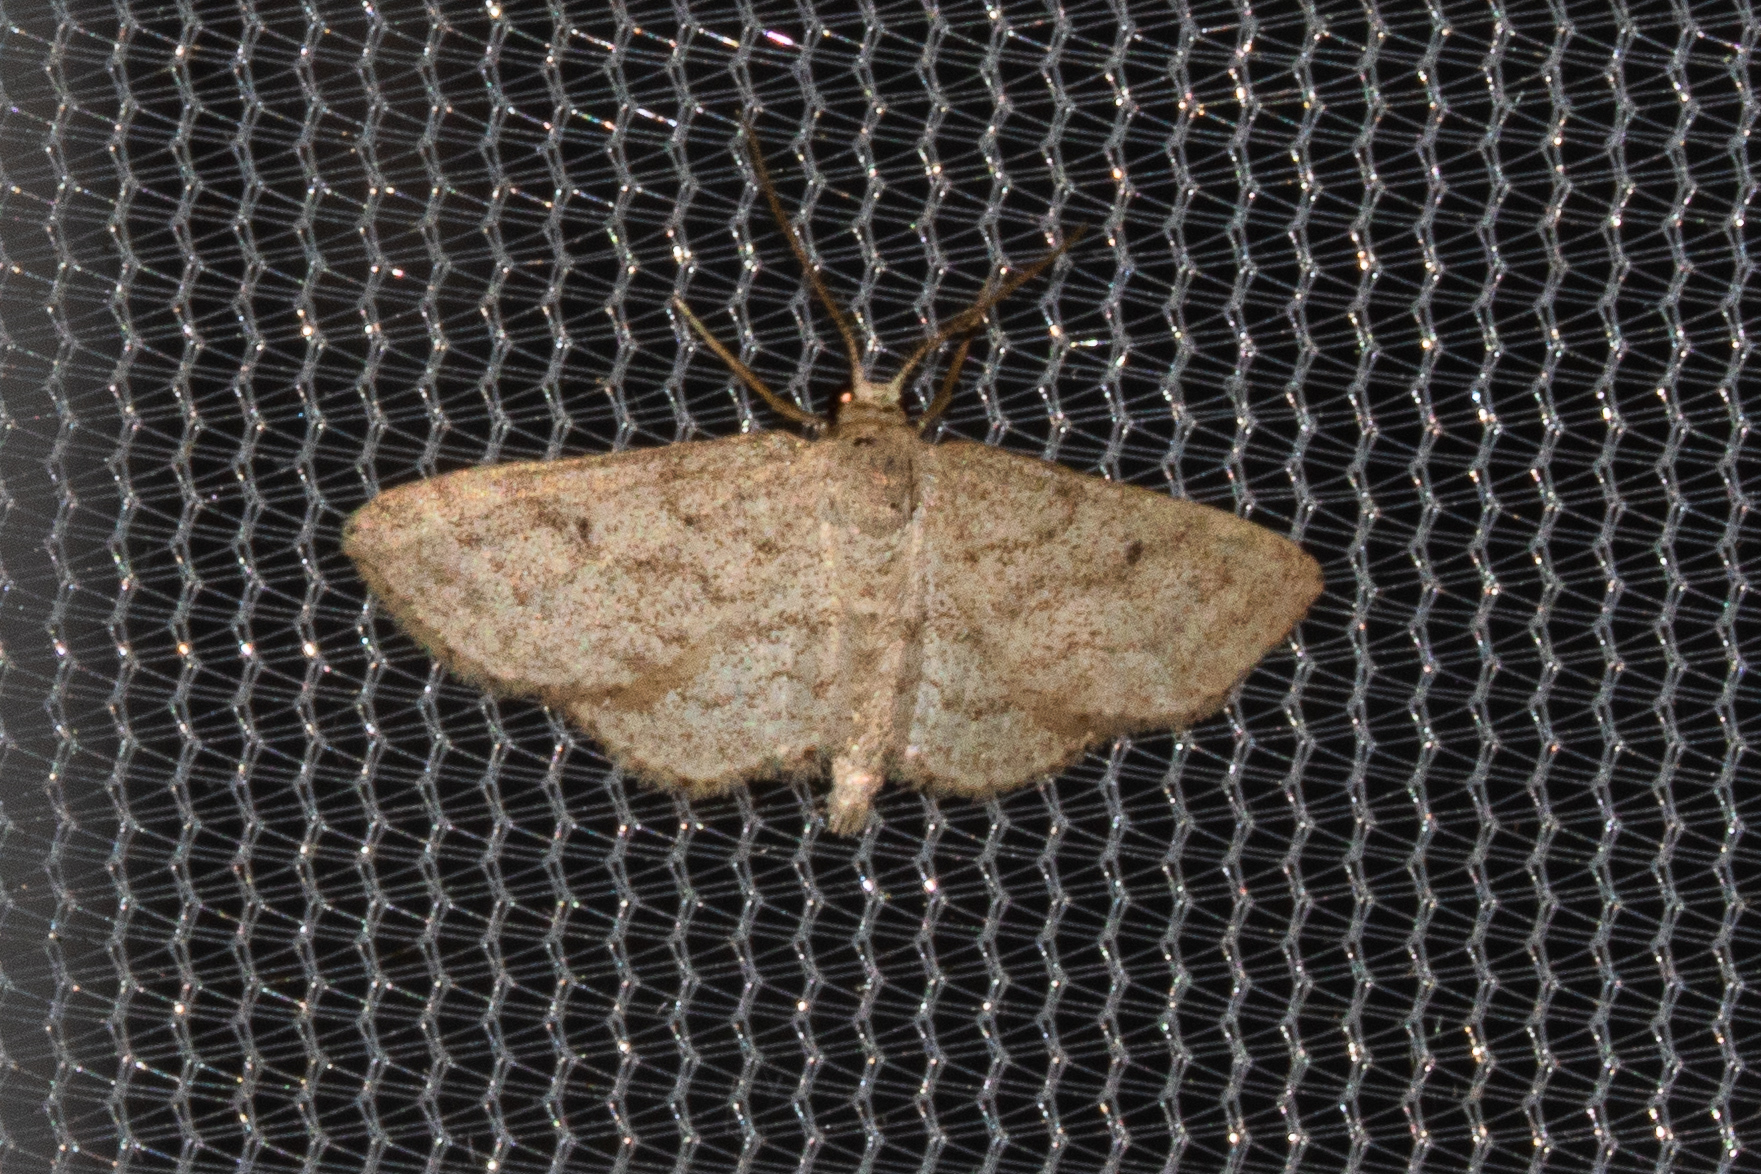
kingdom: Animalia
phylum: Arthropoda
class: Insecta
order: Lepidoptera
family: Geometridae
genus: Lobocleta
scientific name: Lobocleta ossularia
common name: Drab brown wave
